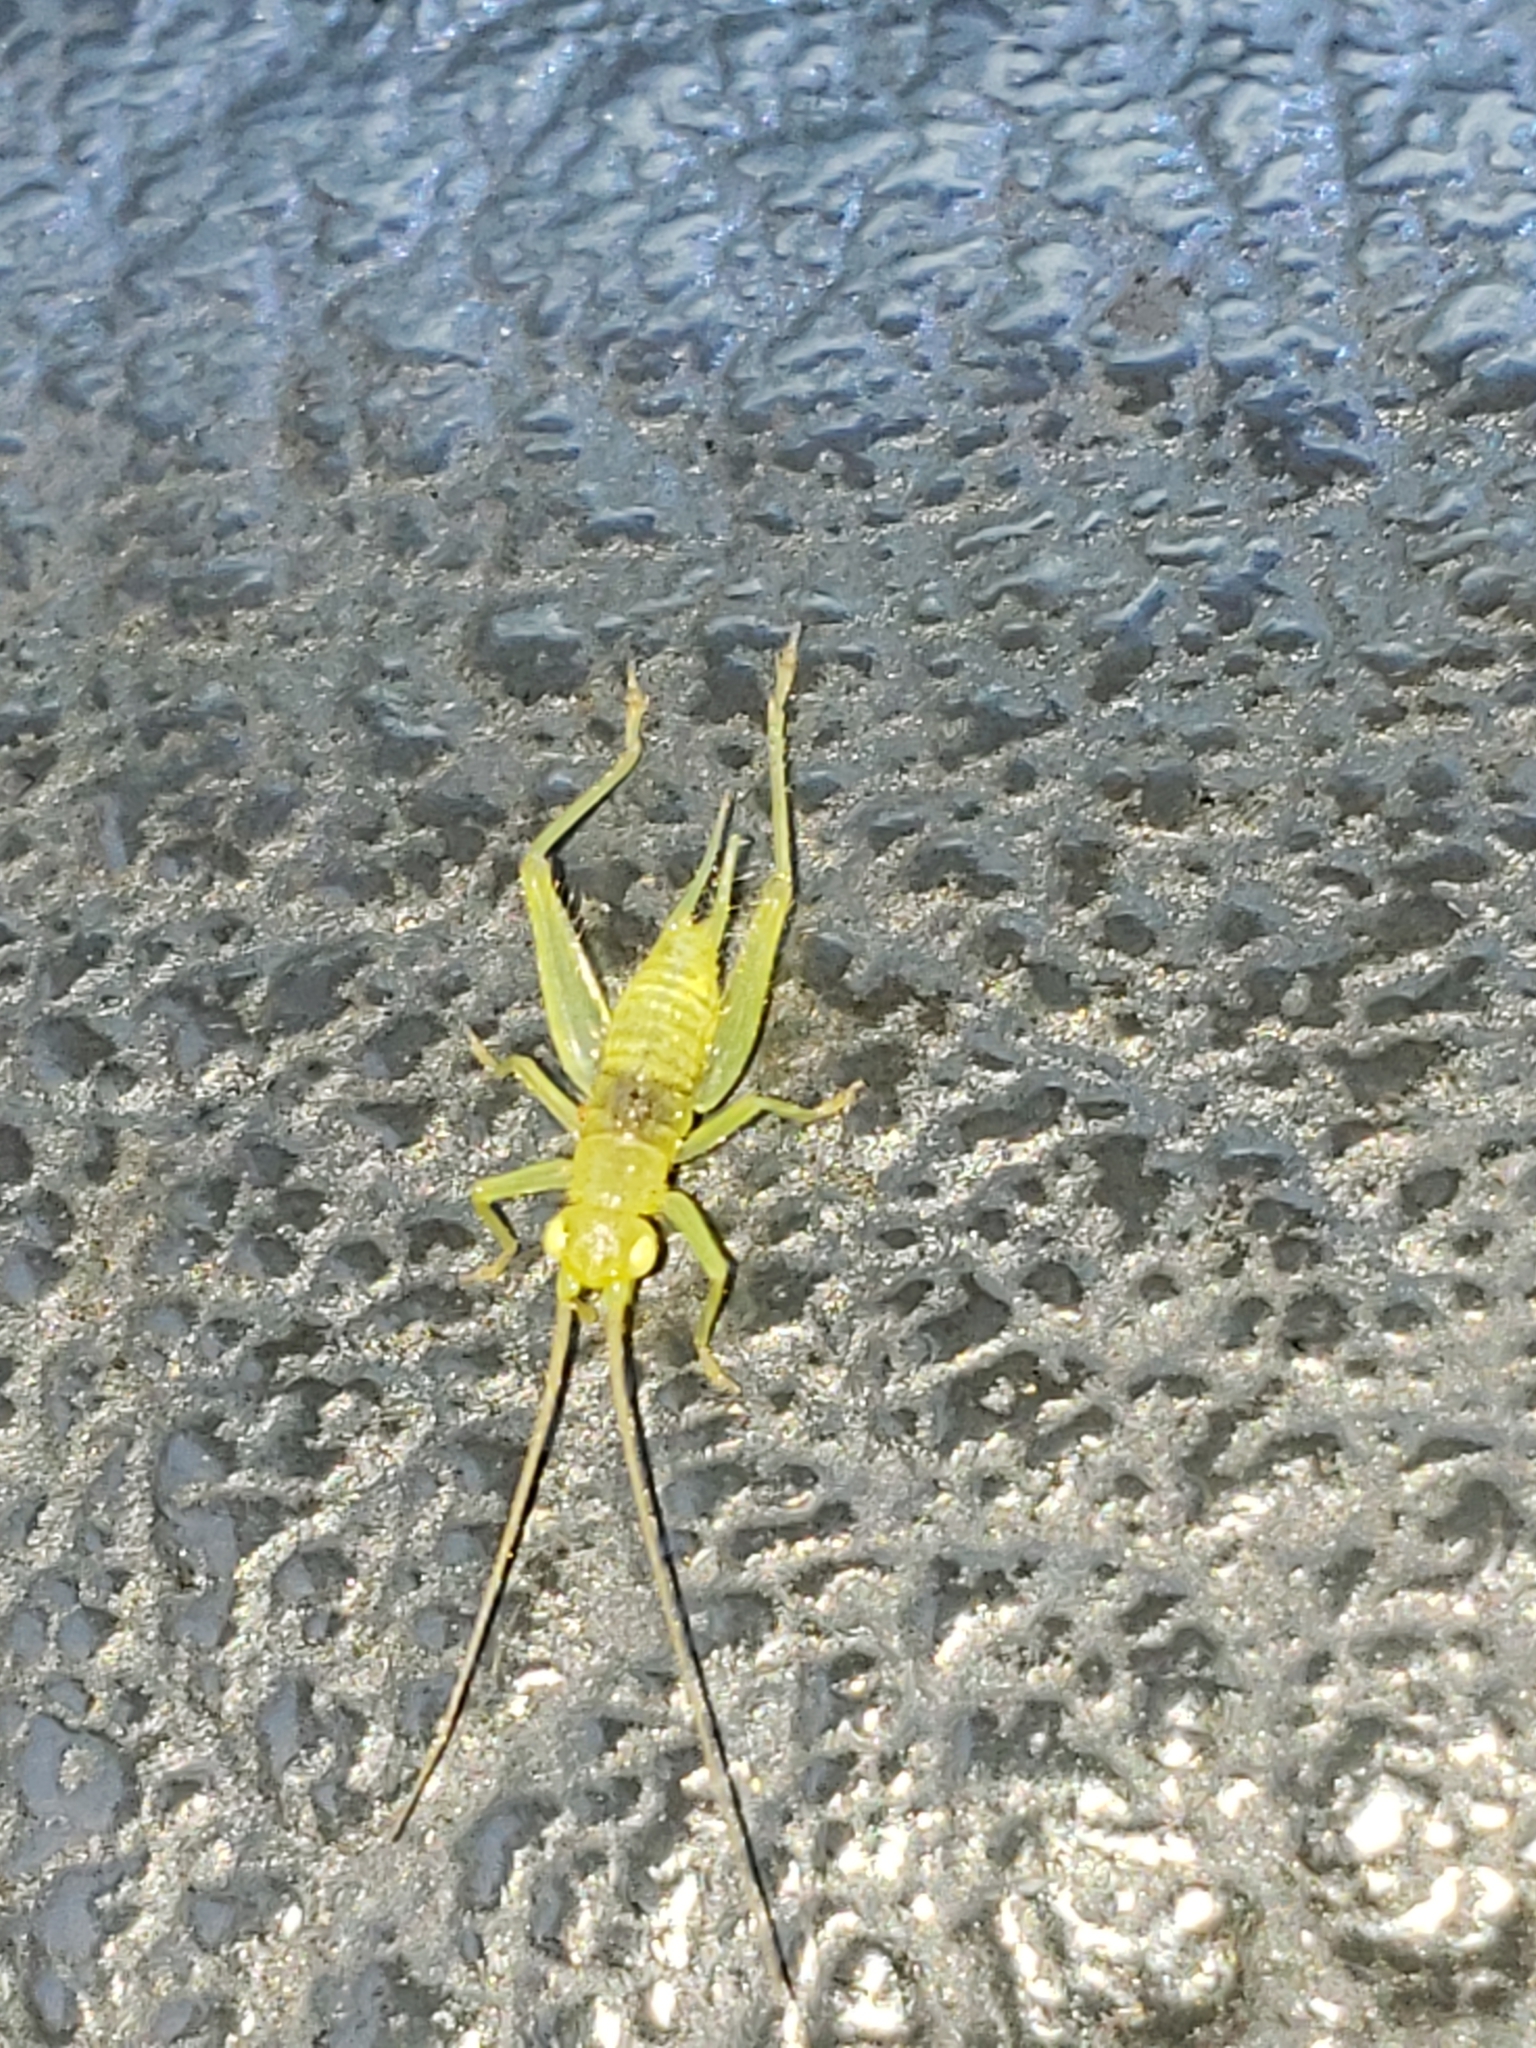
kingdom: Animalia
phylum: Arthropoda
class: Insecta
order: Orthoptera
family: Trigonidiidae
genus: Cyrtoxipha
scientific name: Cyrtoxipha columbiana
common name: Columbian trig
